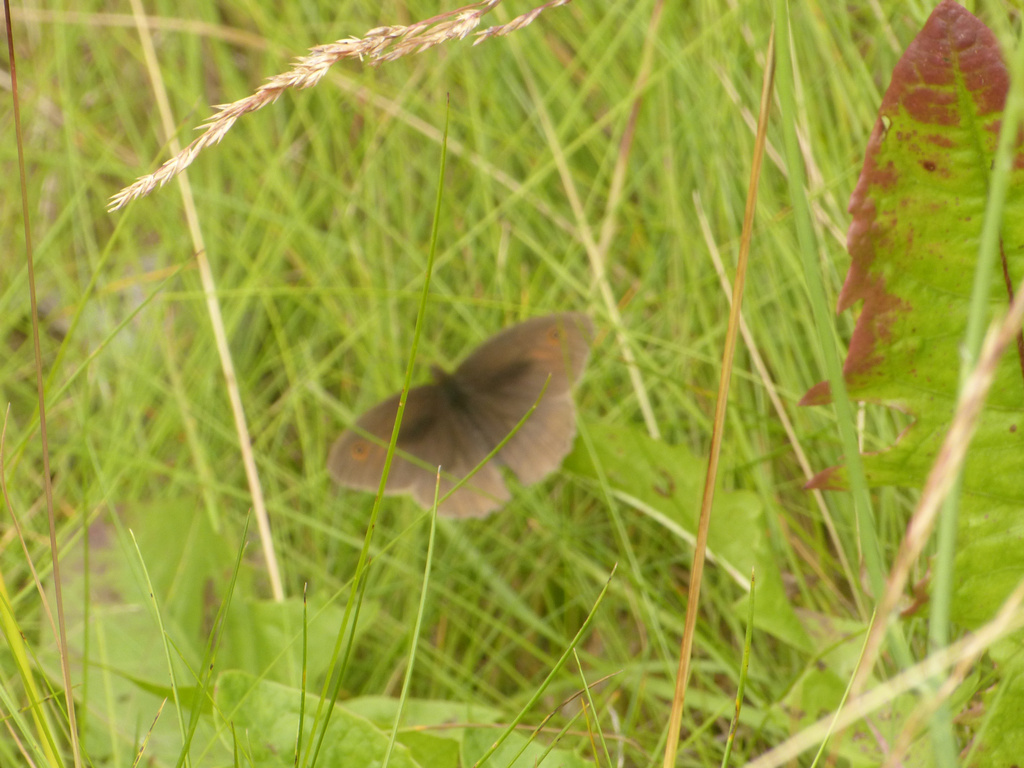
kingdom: Animalia
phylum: Arthropoda
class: Insecta
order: Lepidoptera
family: Nymphalidae
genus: Maniola
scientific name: Maniola jurtina
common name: Meadow brown
